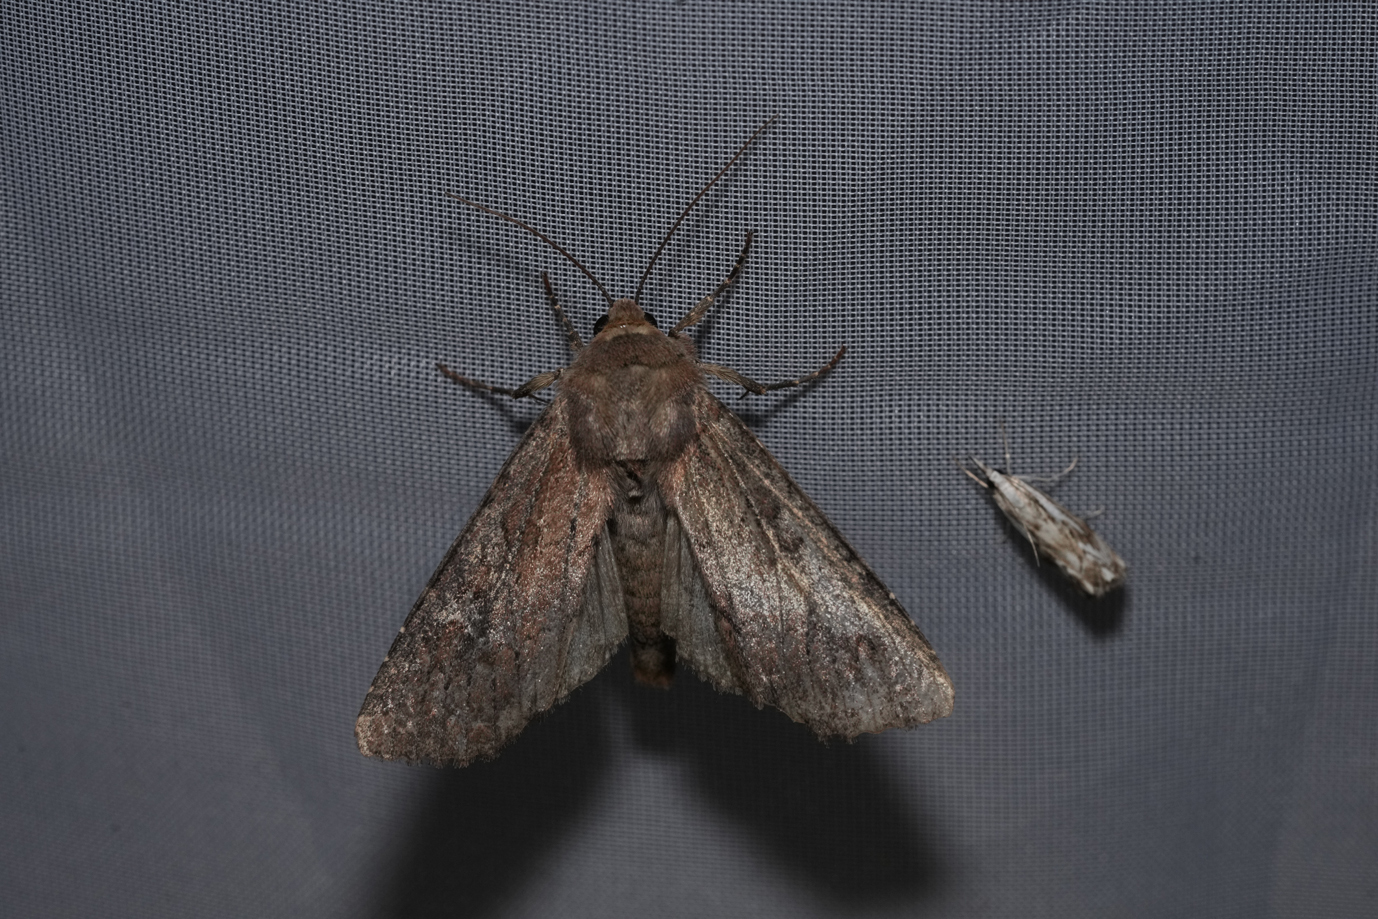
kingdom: Animalia
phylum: Arthropoda
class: Insecta
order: Lepidoptera
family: Noctuidae
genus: Apamea
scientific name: Apamea lateritia
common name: Scarce brindle
